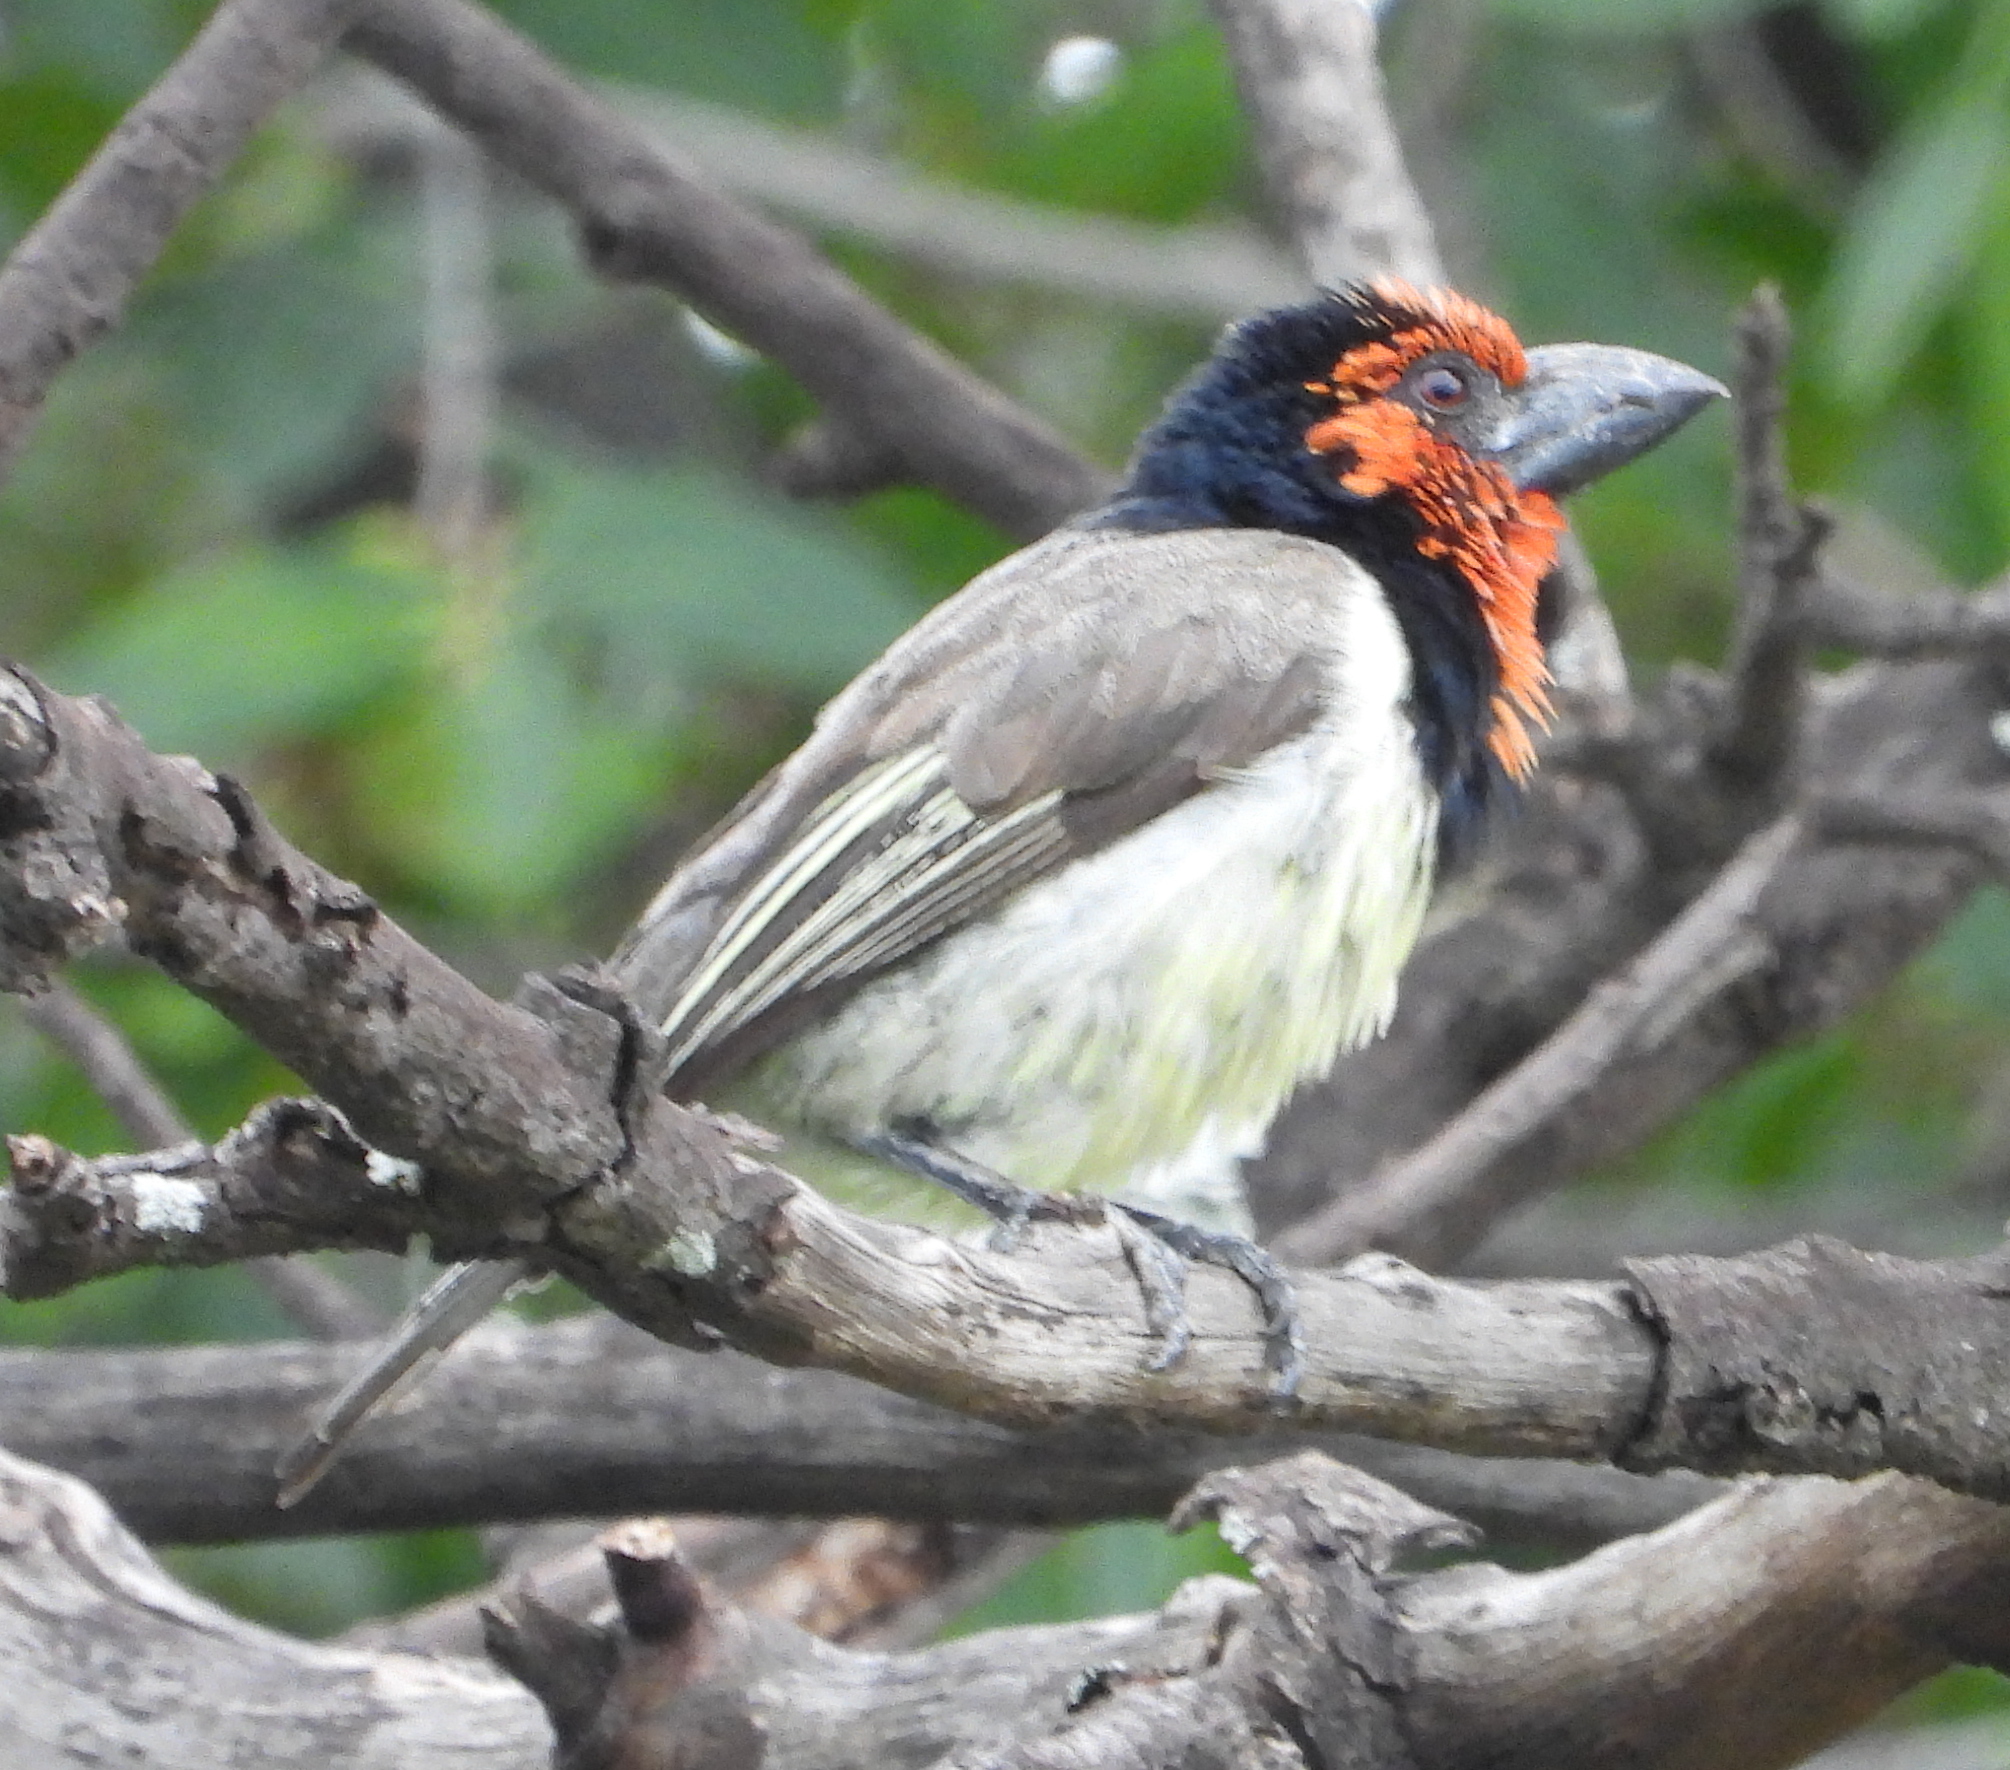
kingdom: Animalia
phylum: Chordata
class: Aves
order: Piciformes
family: Lybiidae
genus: Lybius
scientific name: Lybius torquatus
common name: Black-collared barbet
